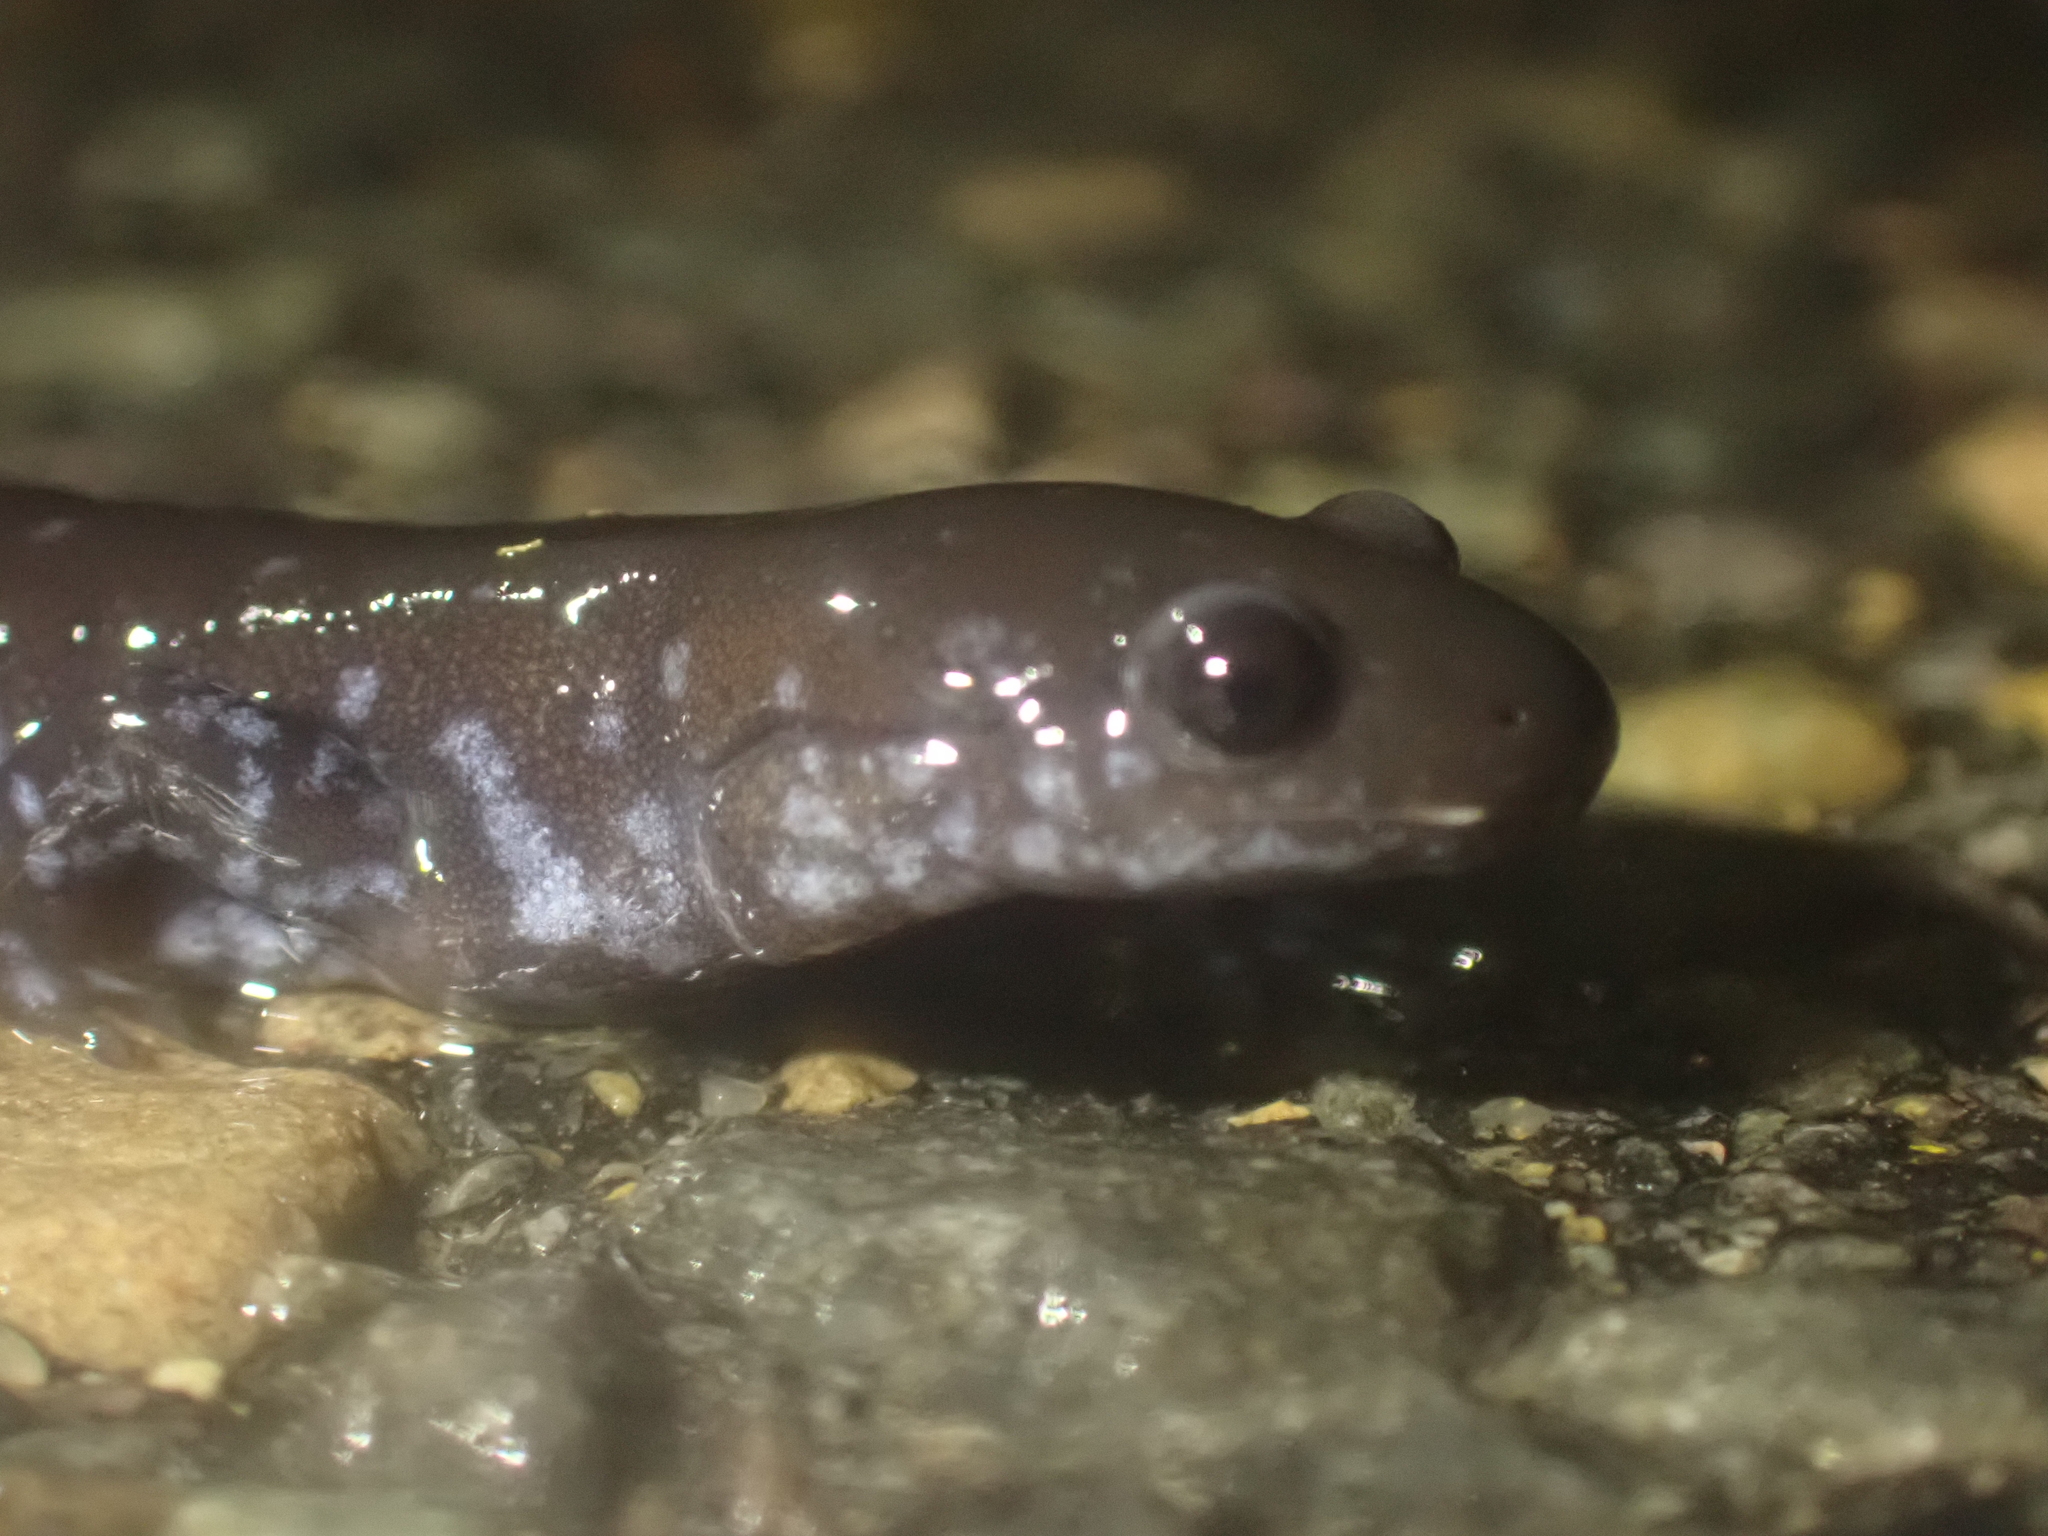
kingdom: Animalia
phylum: Chordata
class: Amphibia
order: Caudata
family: Ambystomatidae
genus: Ambystoma
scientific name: Ambystoma laterale
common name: Blue-spotted salamander
